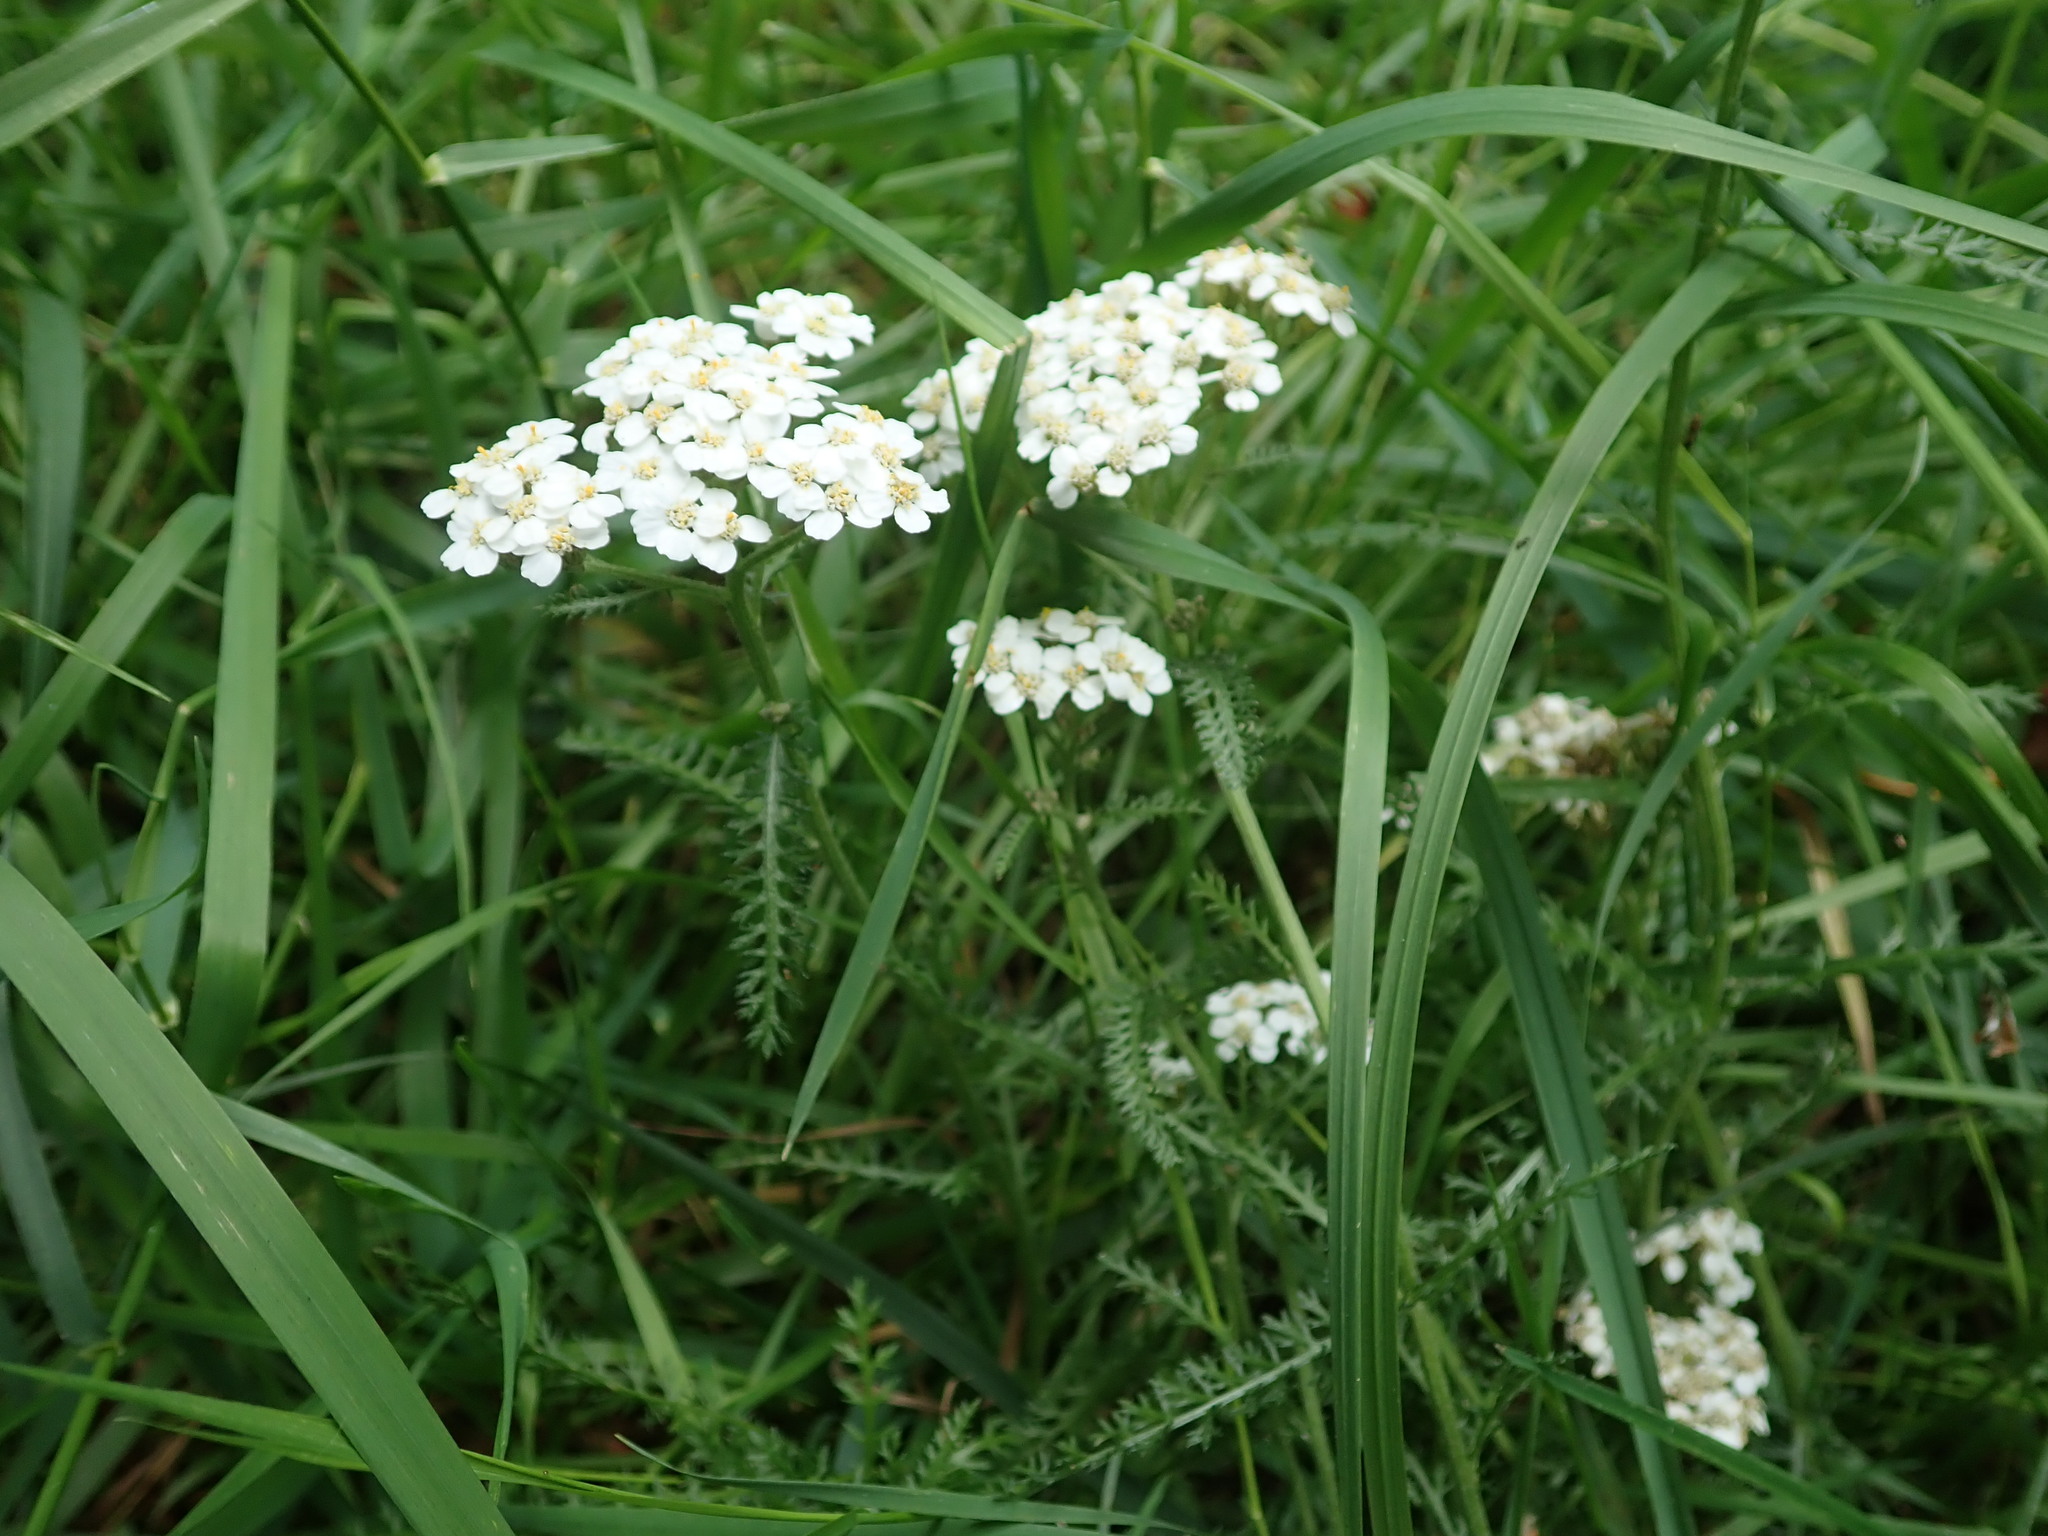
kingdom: Plantae
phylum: Tracheophyta
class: Magnoliopsida
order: Asterales
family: Asteraceae
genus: Achillea
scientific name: Achillea millefolium
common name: Yarrow
